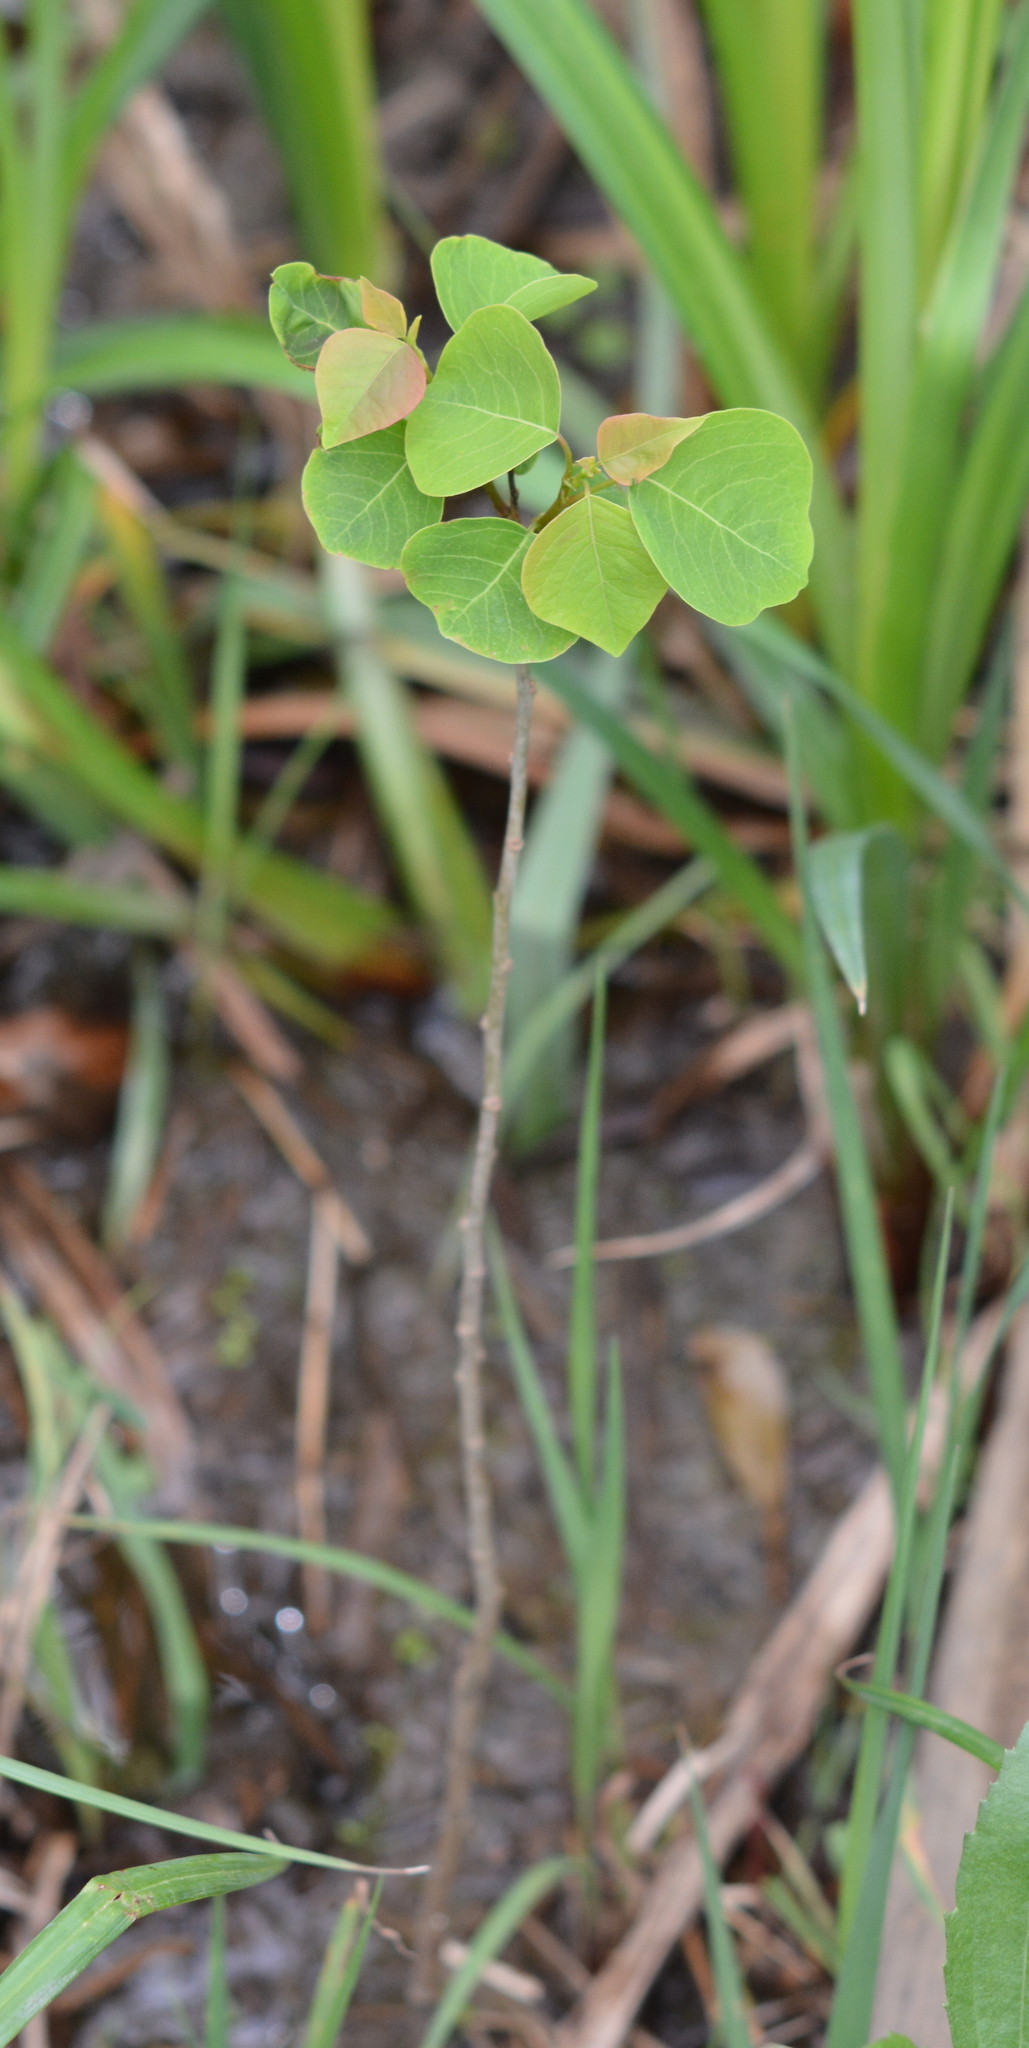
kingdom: Plantae
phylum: Tracheophyta
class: Magnoliopsida
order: Malpighiales
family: Euphorbiaceae
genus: Triadica
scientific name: Triadica sebifera
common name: Chinese tallow
